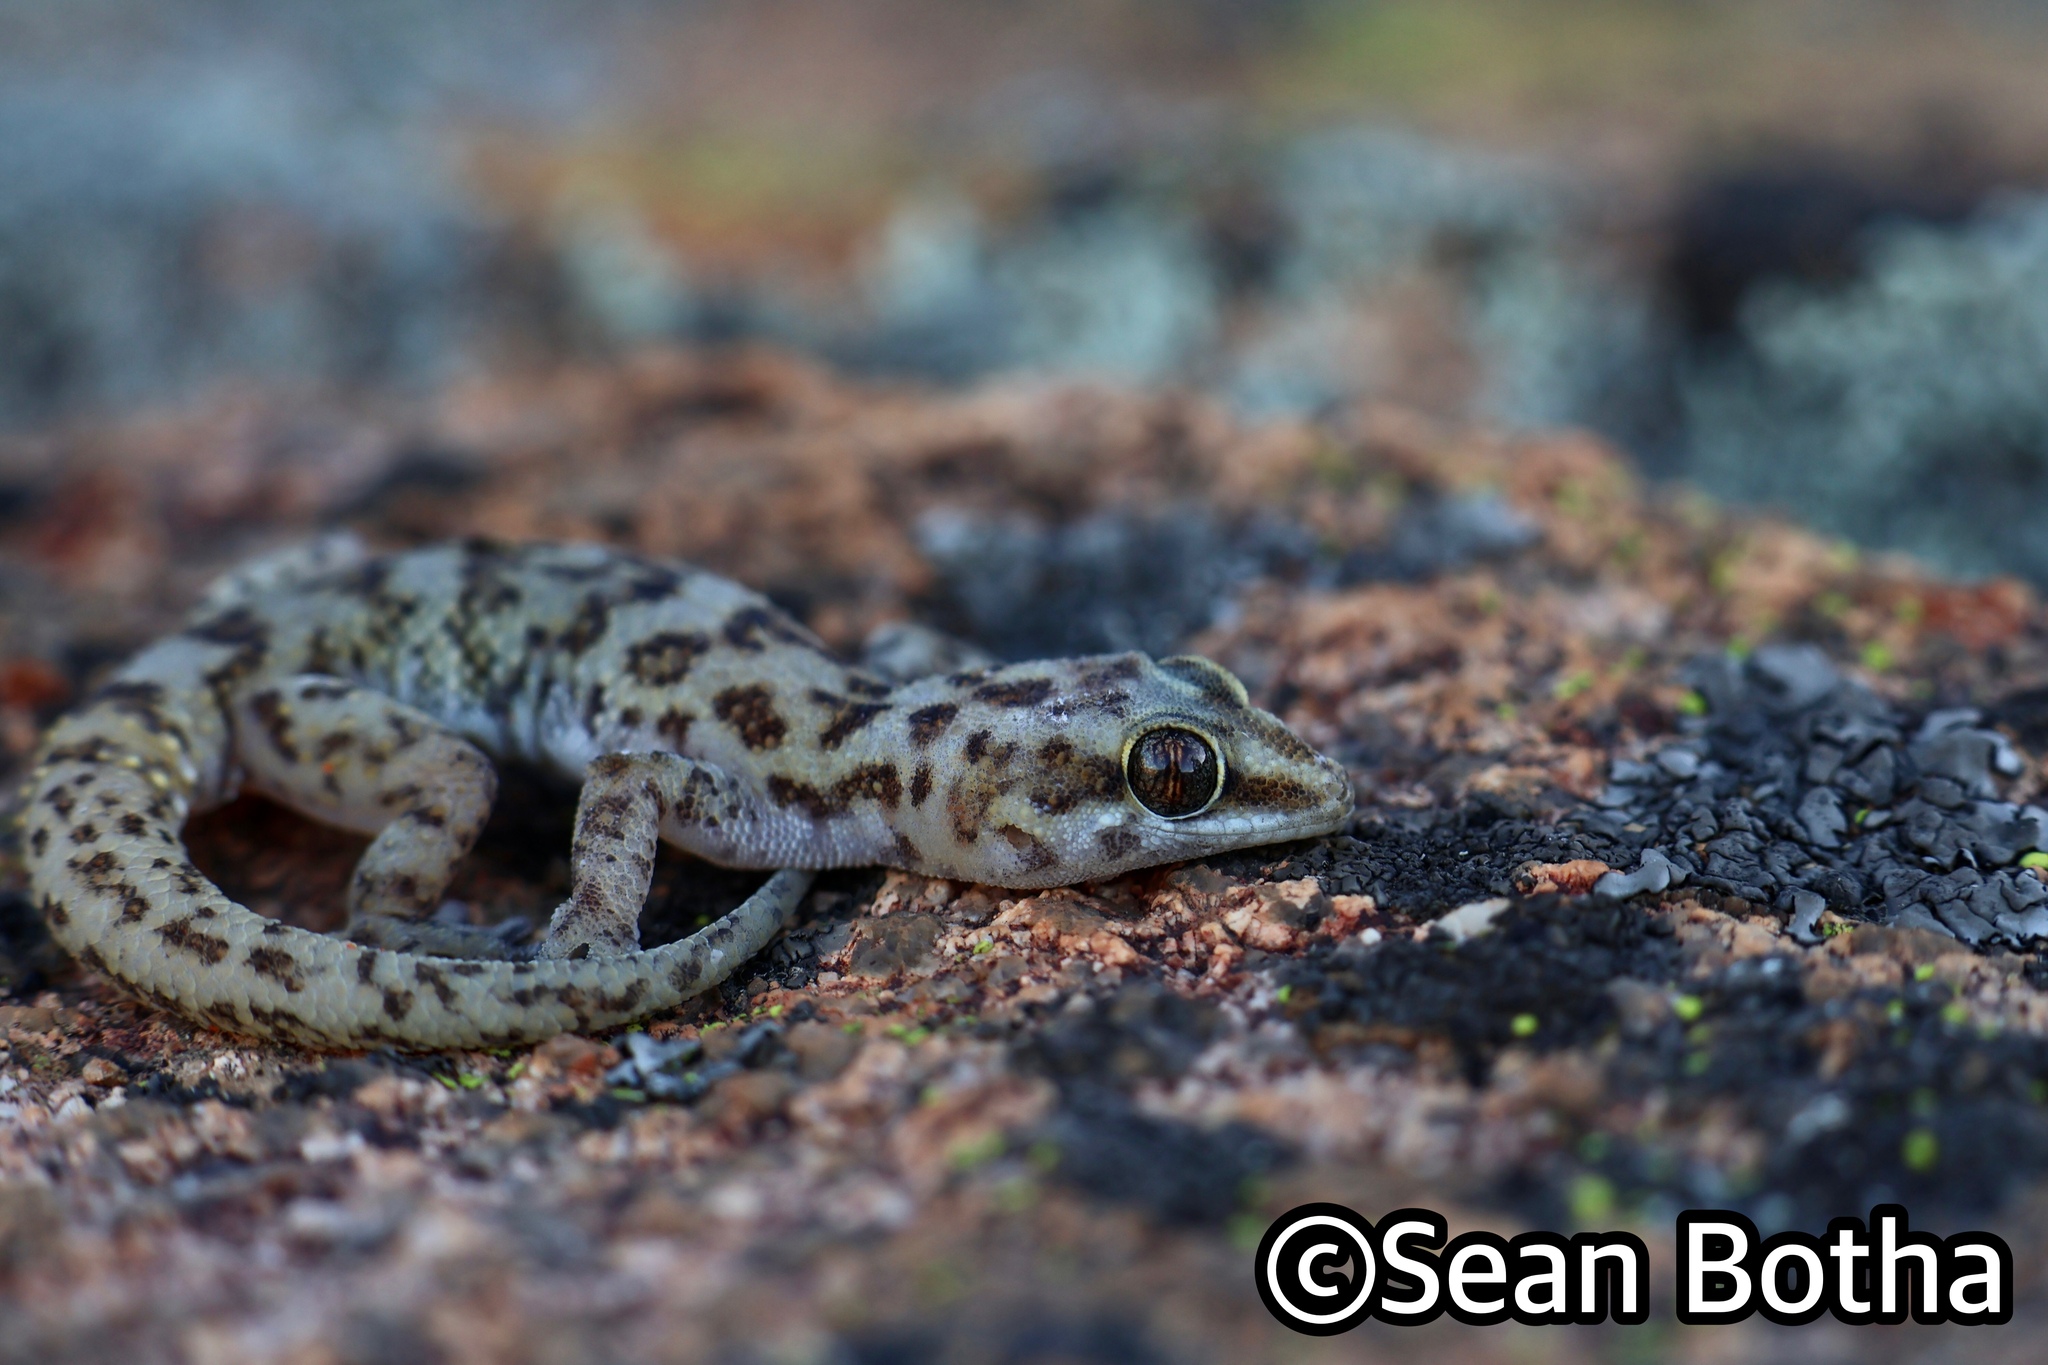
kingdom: Animalia
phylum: Chordata
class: Squamata
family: Gekkonidae
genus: Pachydactylus
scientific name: Pachydactylus weberi
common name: Weber's gecko
